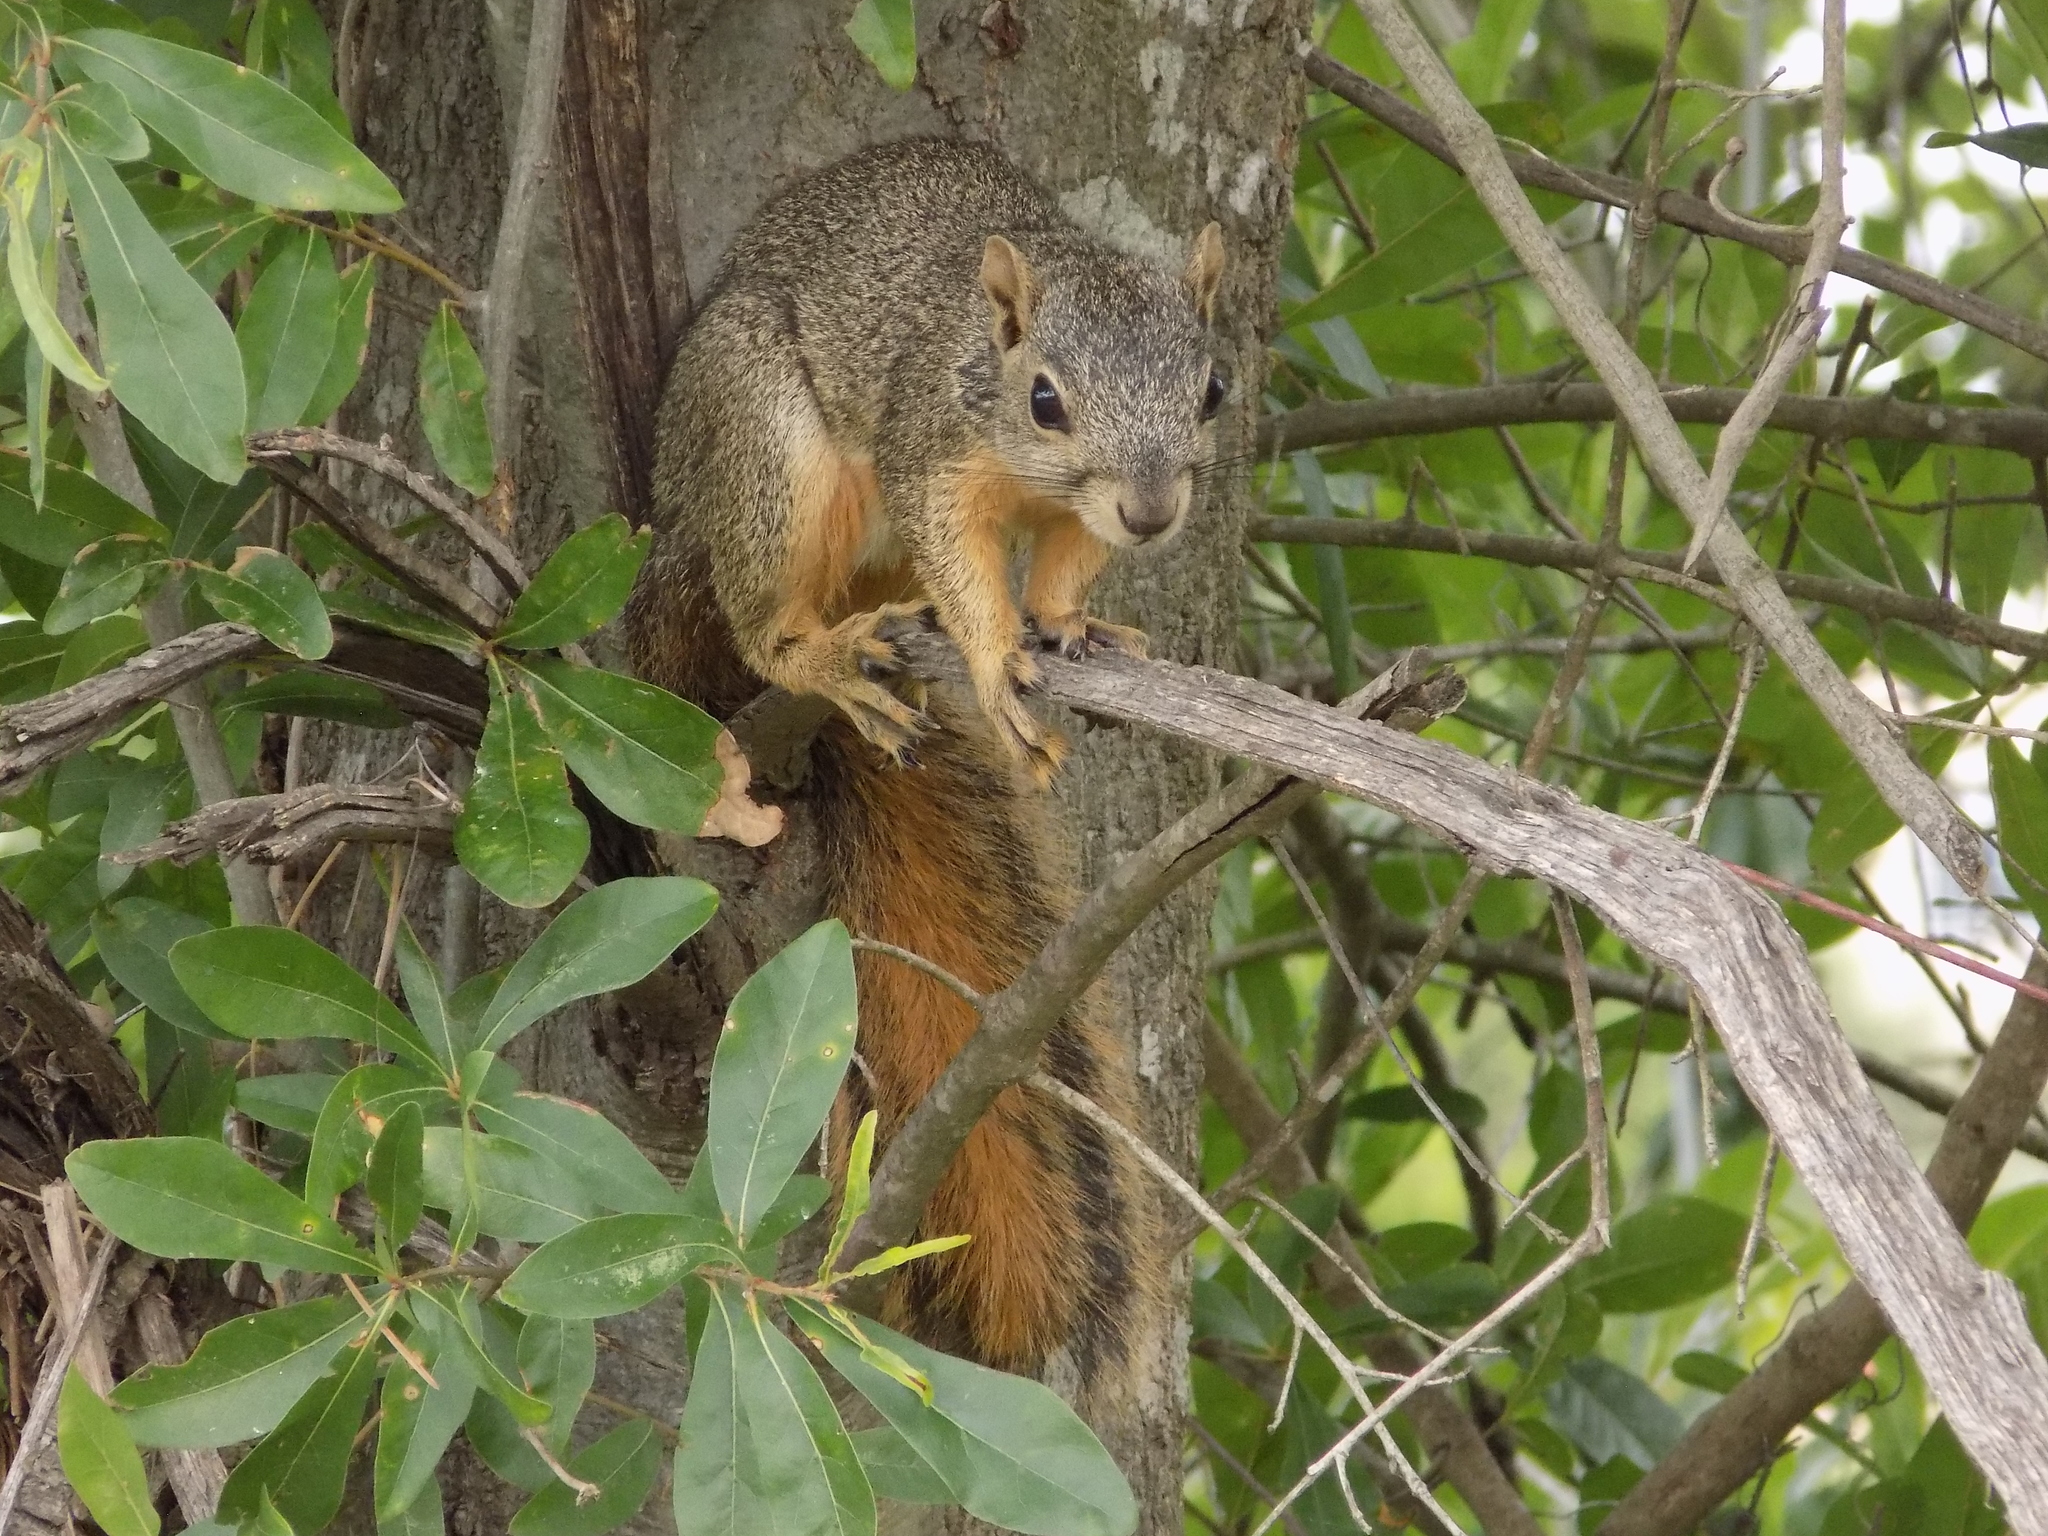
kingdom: Animalia
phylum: Chordata
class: Mammalia
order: Rodentia
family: Sciuridae
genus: Sciurus
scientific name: Sciurus niger
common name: Fox squirrel
